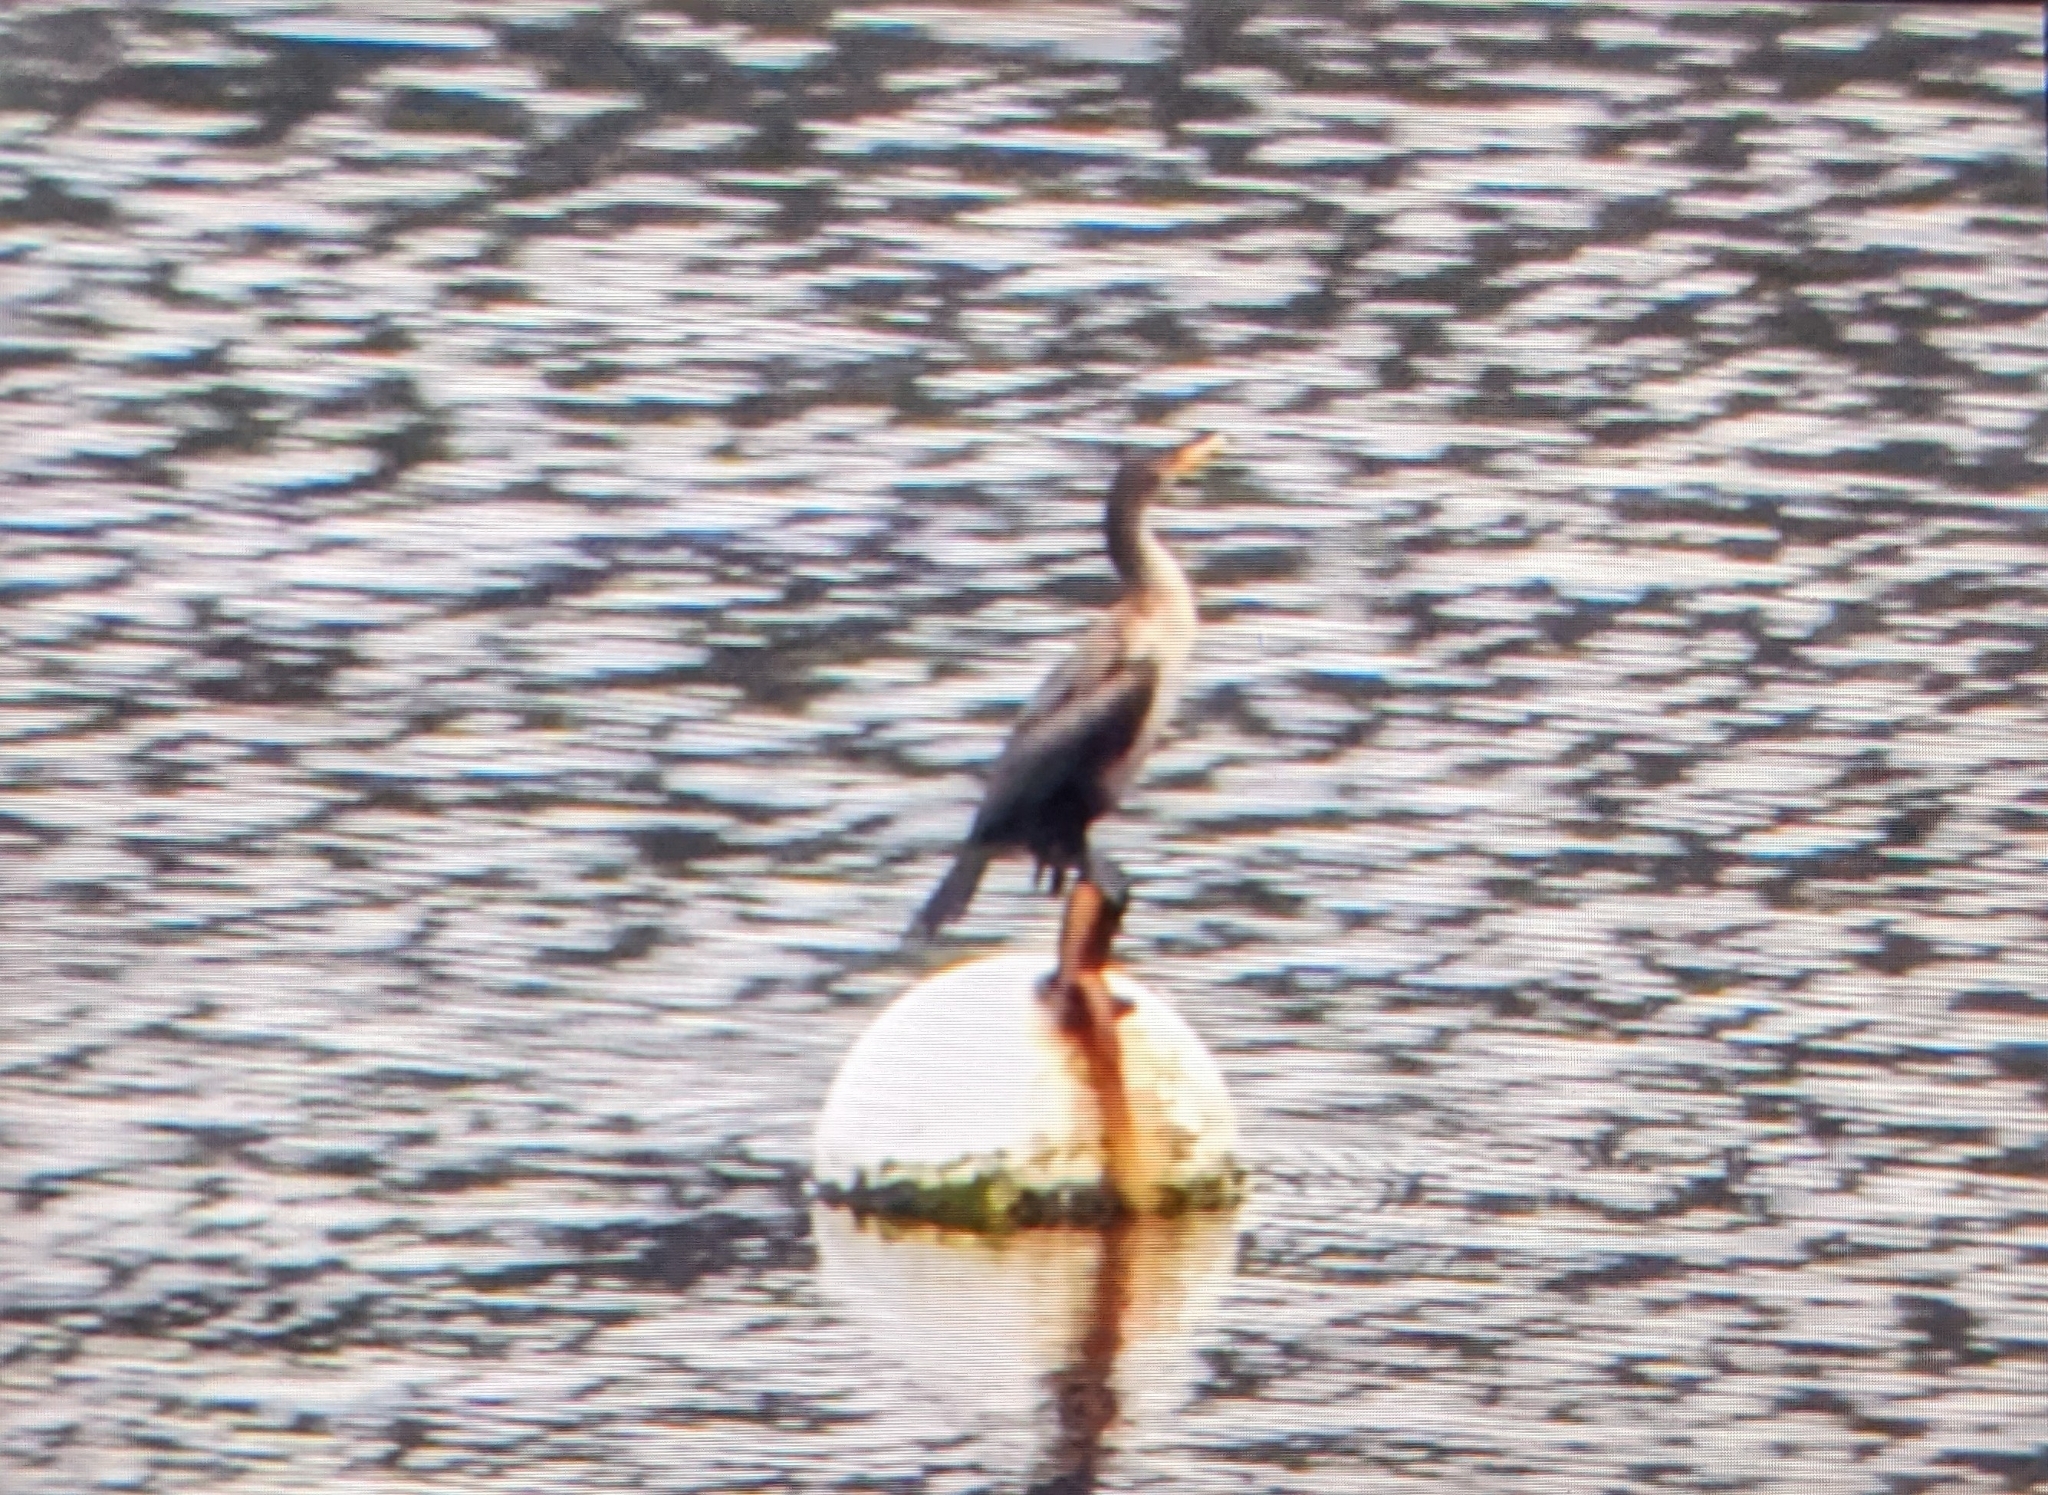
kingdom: Animalia
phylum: Chordata
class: Aves
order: Suliformes
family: Phalacrocoracidae
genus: Phalacrocorax
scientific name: Phalacrocorax auritus
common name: Double-crested cormorant
